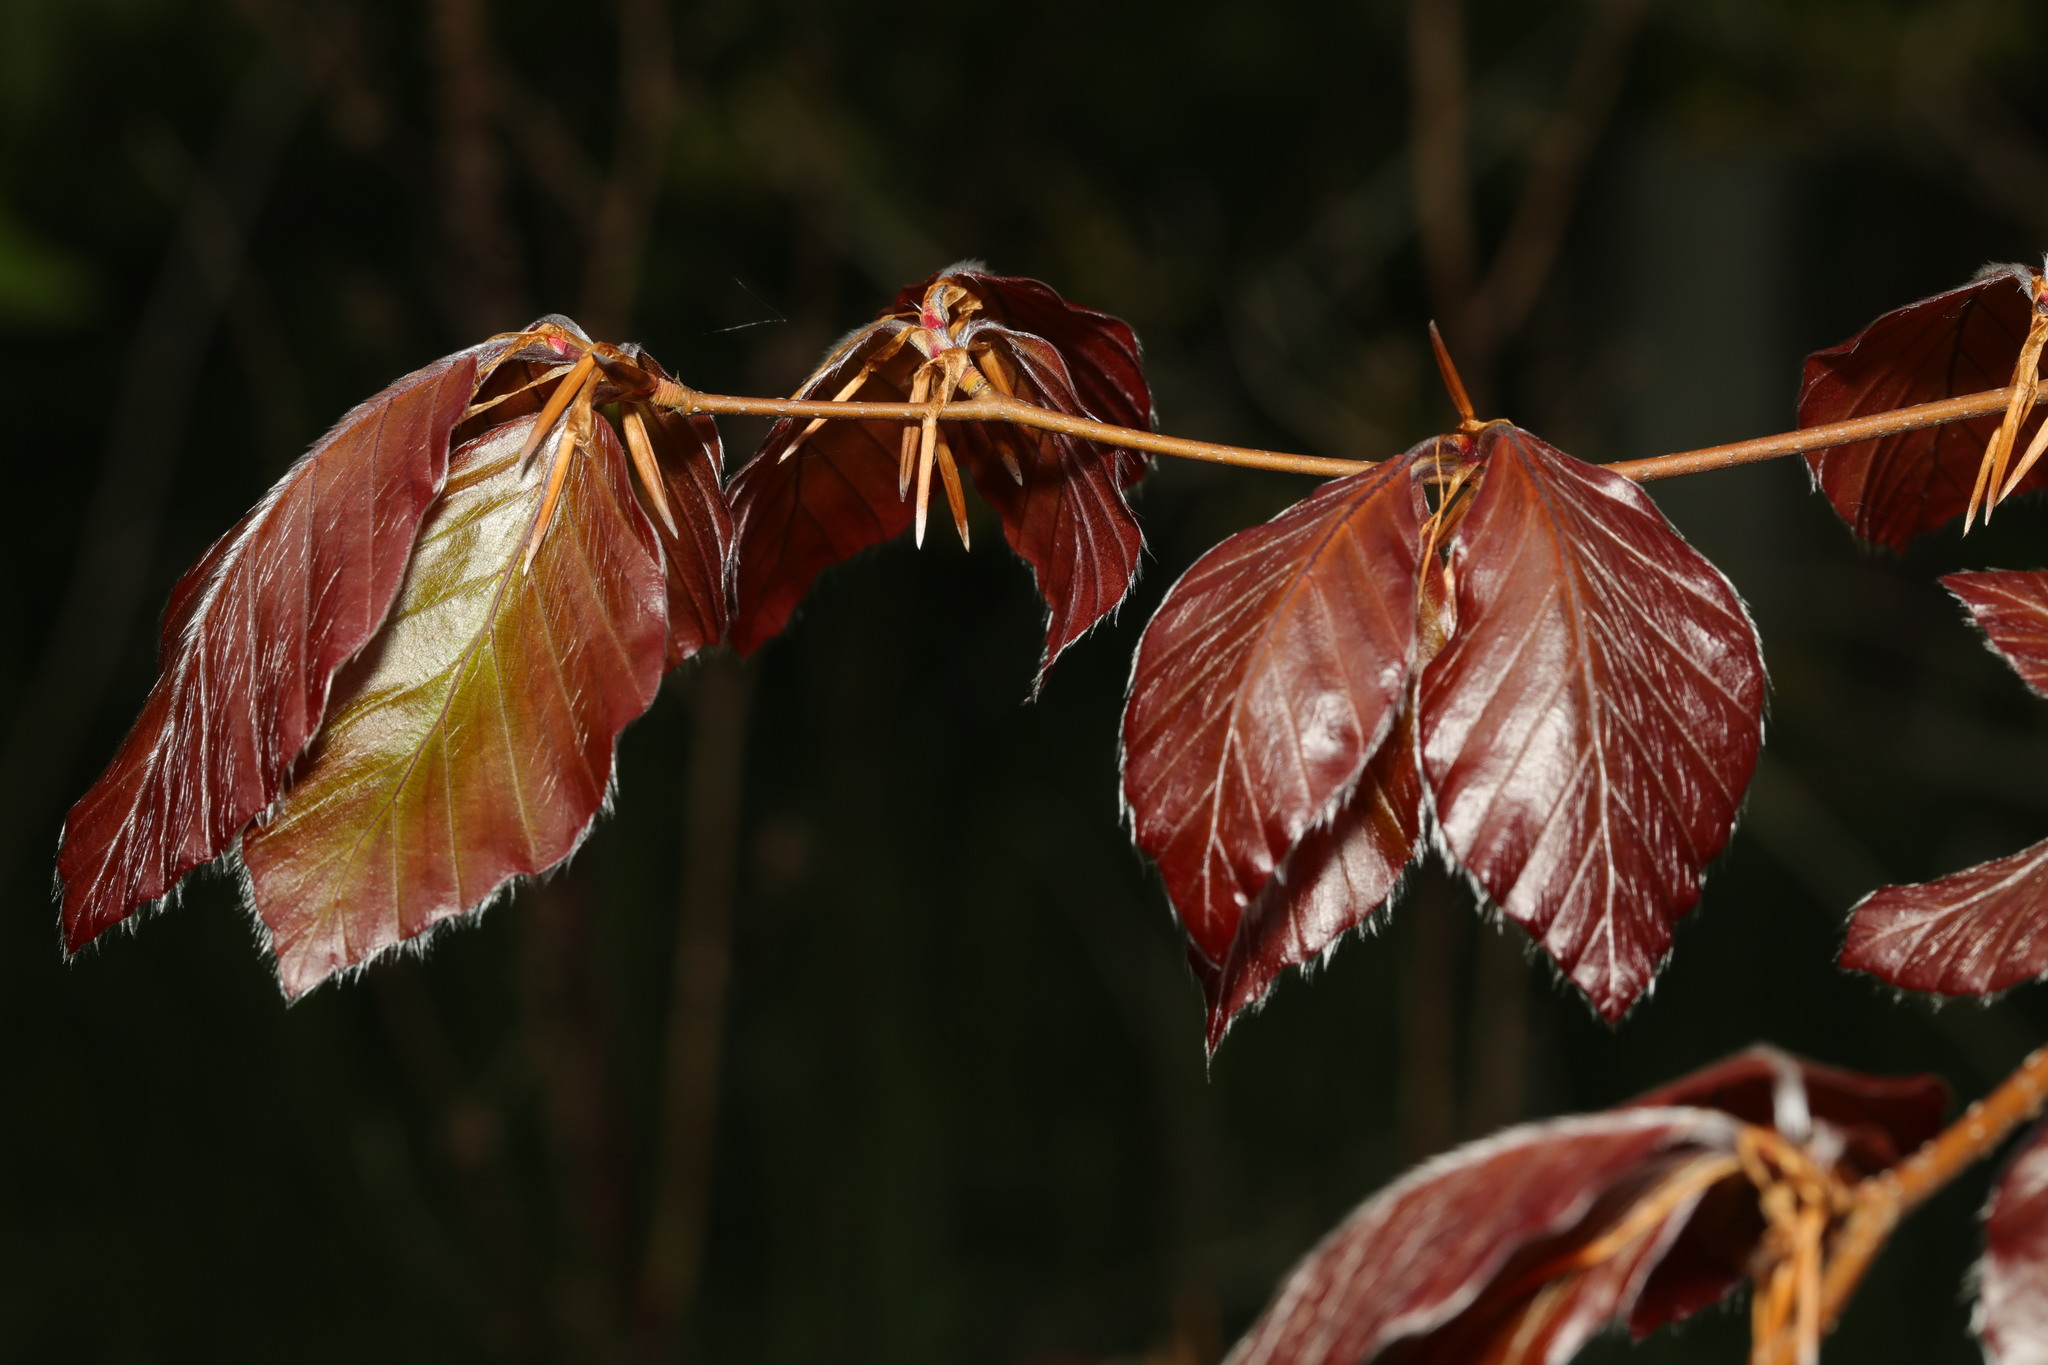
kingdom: Plantae
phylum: Tracheophyta
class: Magnoliopsida
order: Fagales
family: Fagaceae
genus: Fagus
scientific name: Fagus sylvatica
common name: Beech
